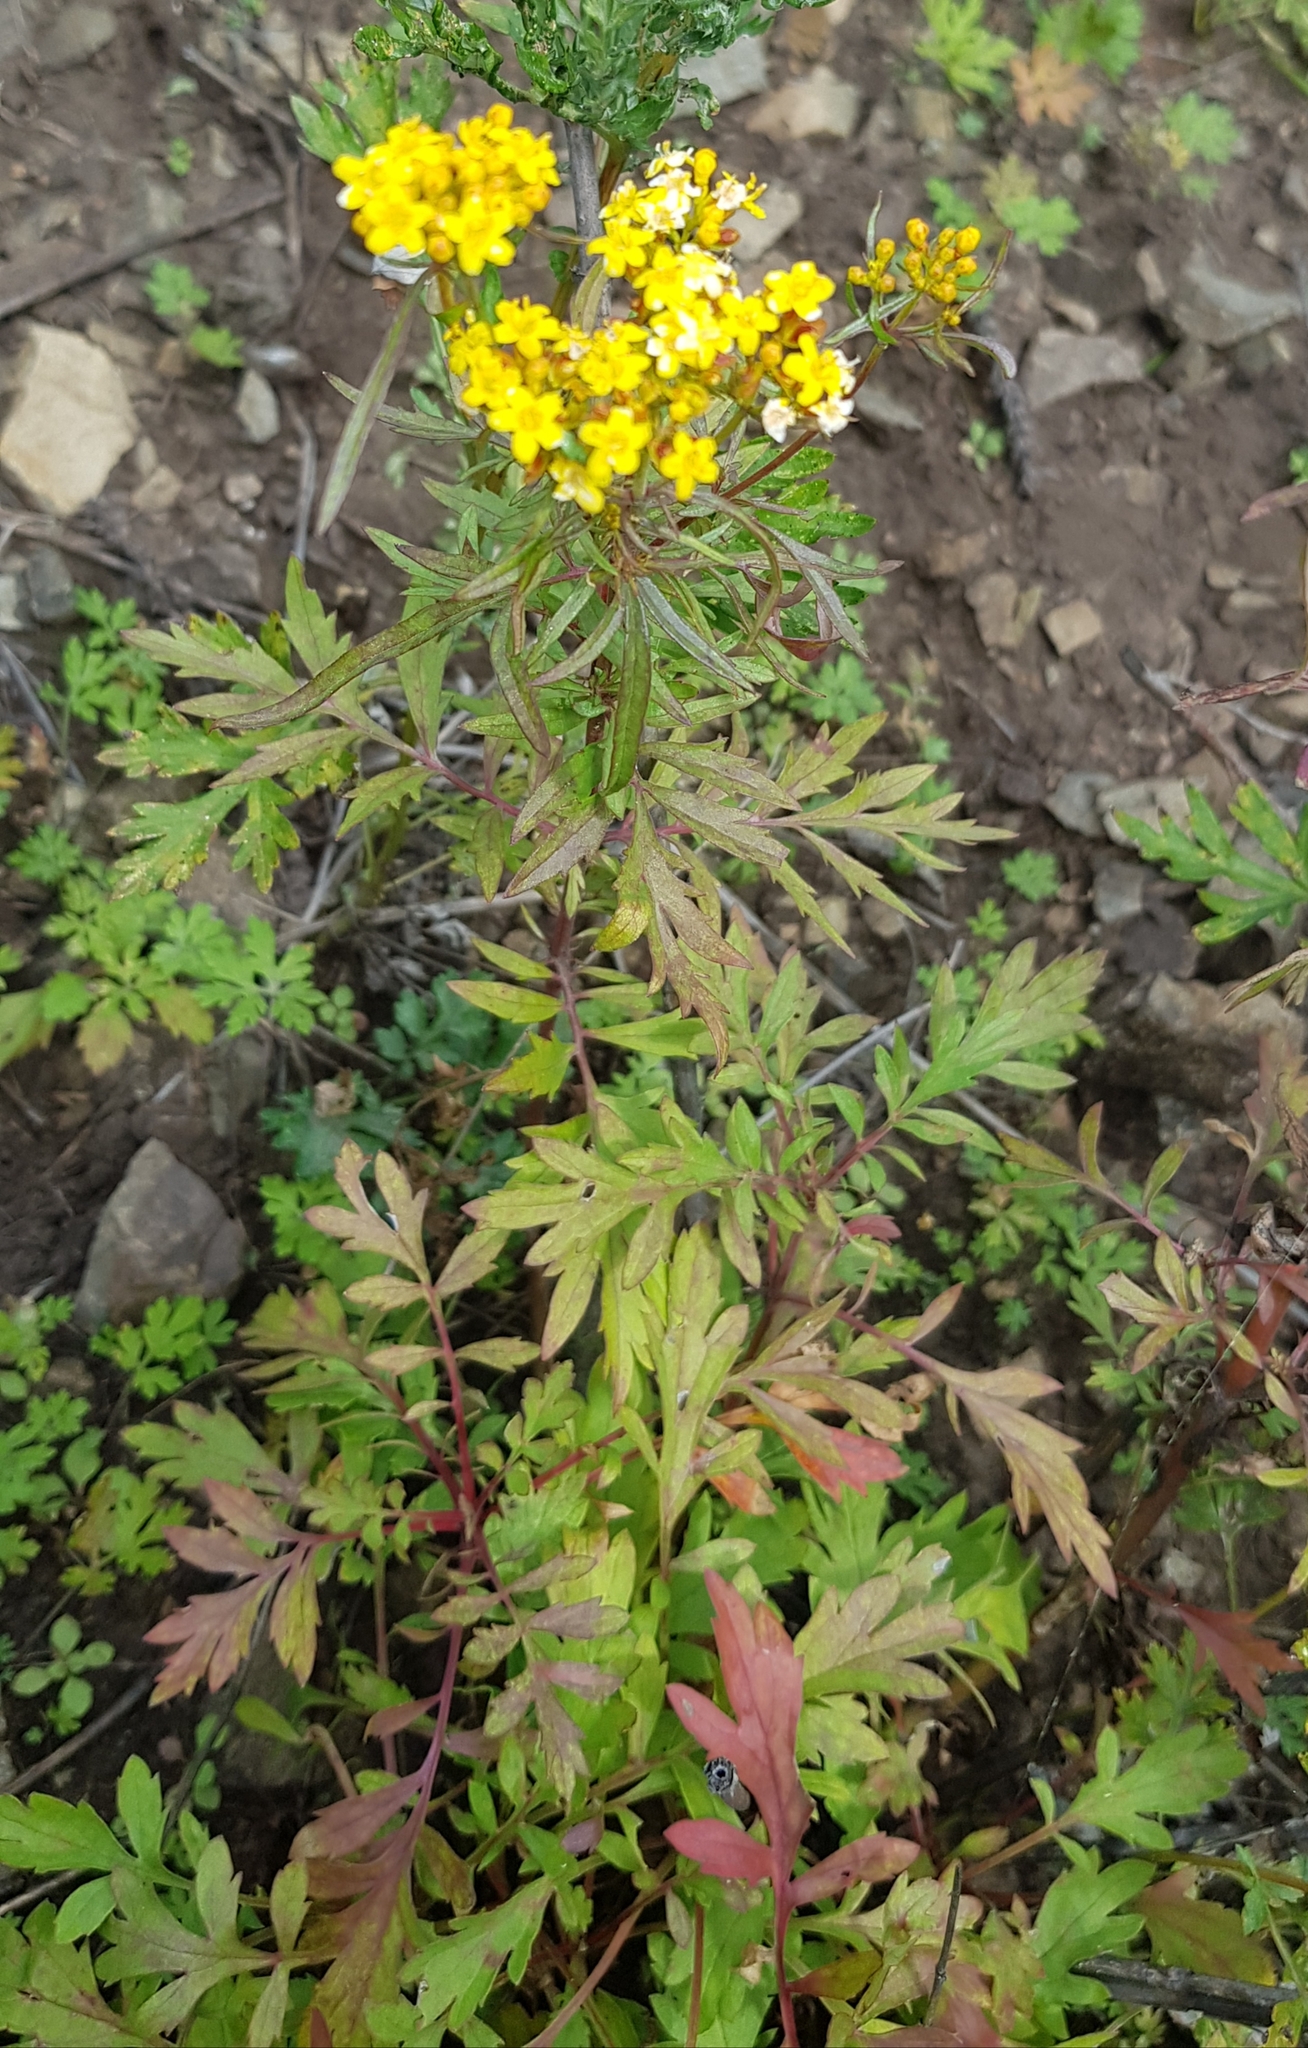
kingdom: Plantae
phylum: Tracheophyta
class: Magnoliopsida
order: Dipsacales
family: Caprifoliaceae
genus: Patrinia
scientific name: Patrinia rupestris
